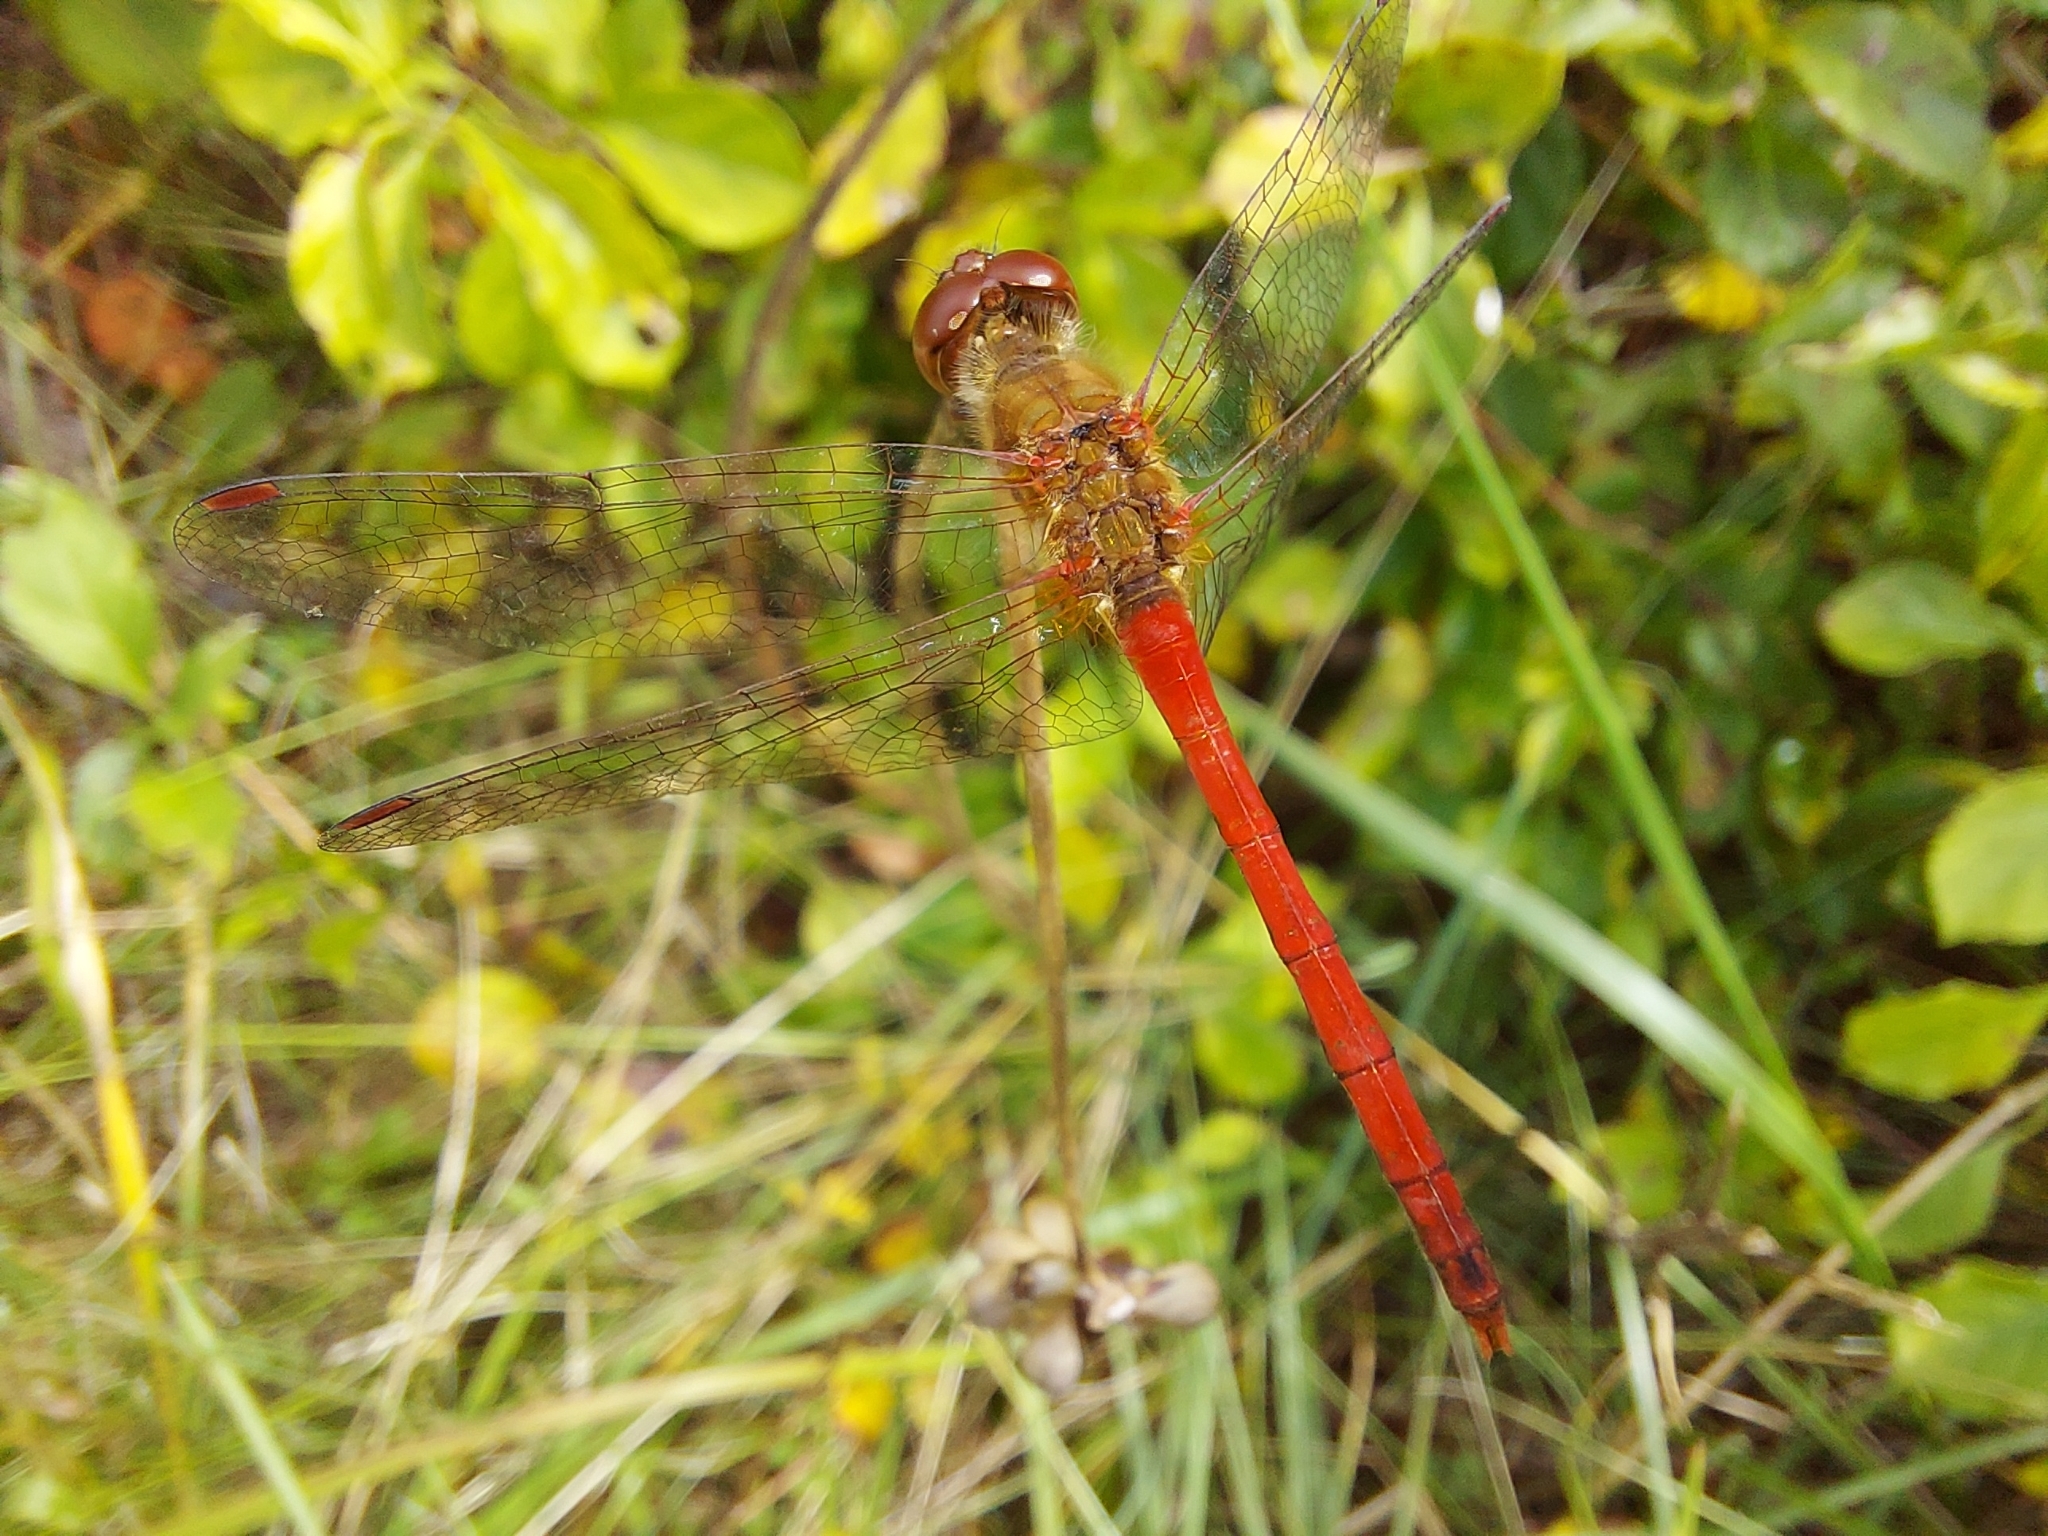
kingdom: Animalia
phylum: Arthropoda
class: Insecta
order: Odonata
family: Libellulidae
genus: Sympetrum
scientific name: Sympetrum vicinum
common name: Autumn meadowhawk
